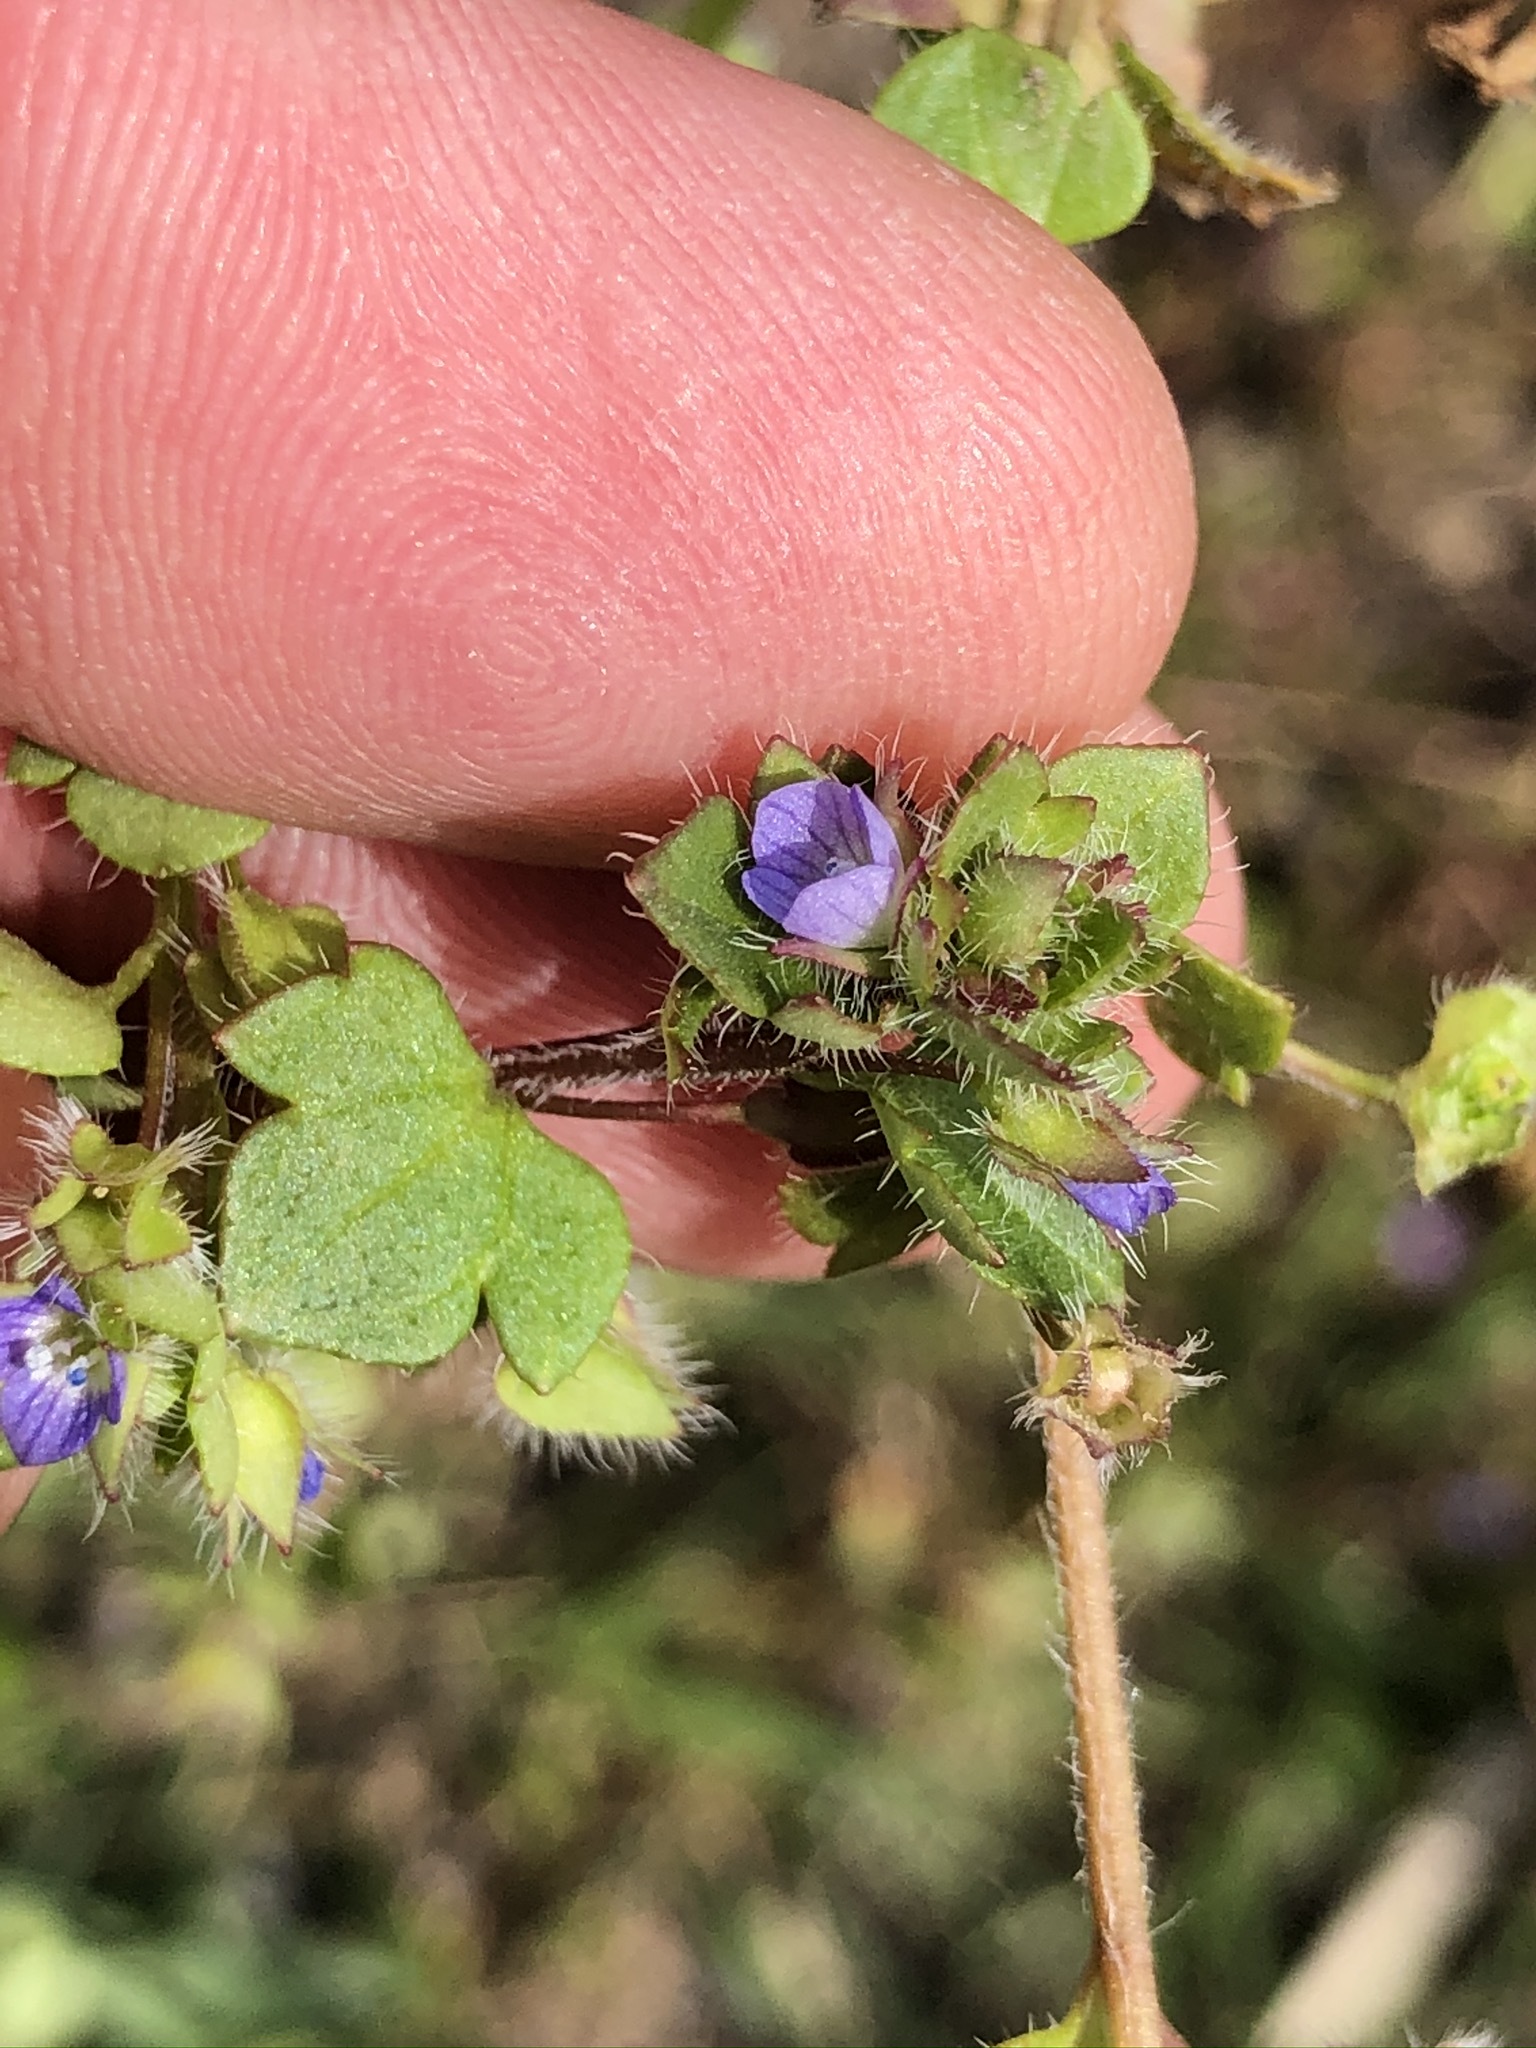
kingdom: Plantae
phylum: Tracheophyta
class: Magnoliopsida
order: Lamiales
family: Plantaginaceae
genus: Veronica
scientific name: Veronica hederifolia
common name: Ivy-leaved speedwell
